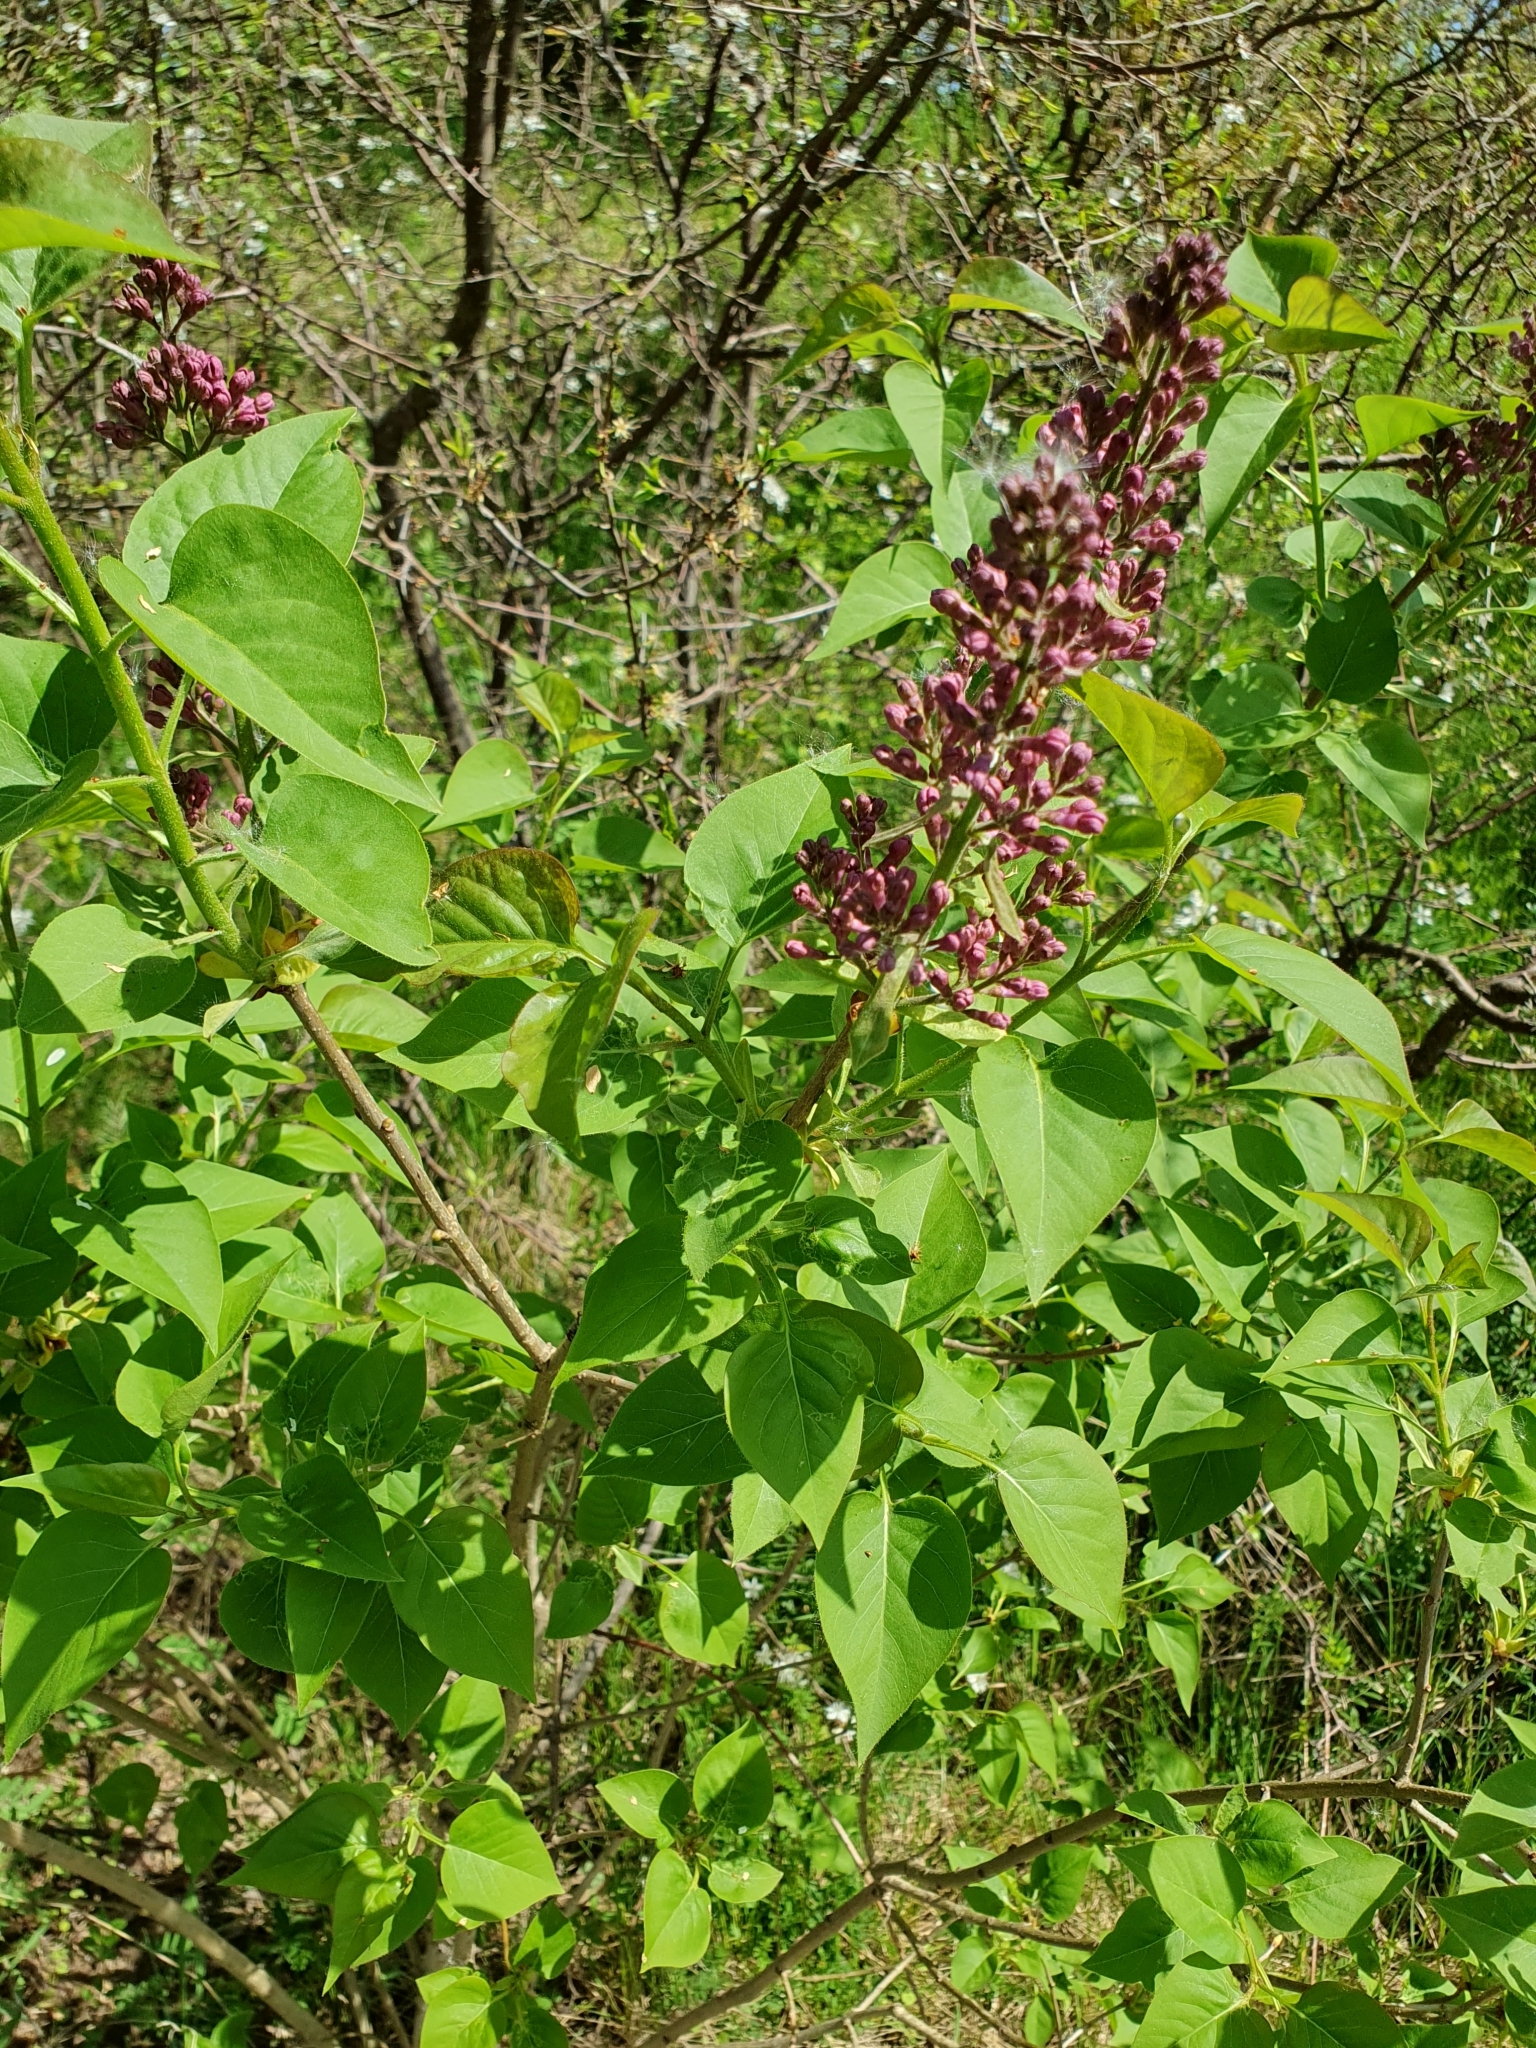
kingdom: Plantae
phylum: Tracheophyta
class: Magnoliopsida
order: Lamiales
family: Oleaceae
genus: Syringa
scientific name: Syringa vulgaris
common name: Common lilac
